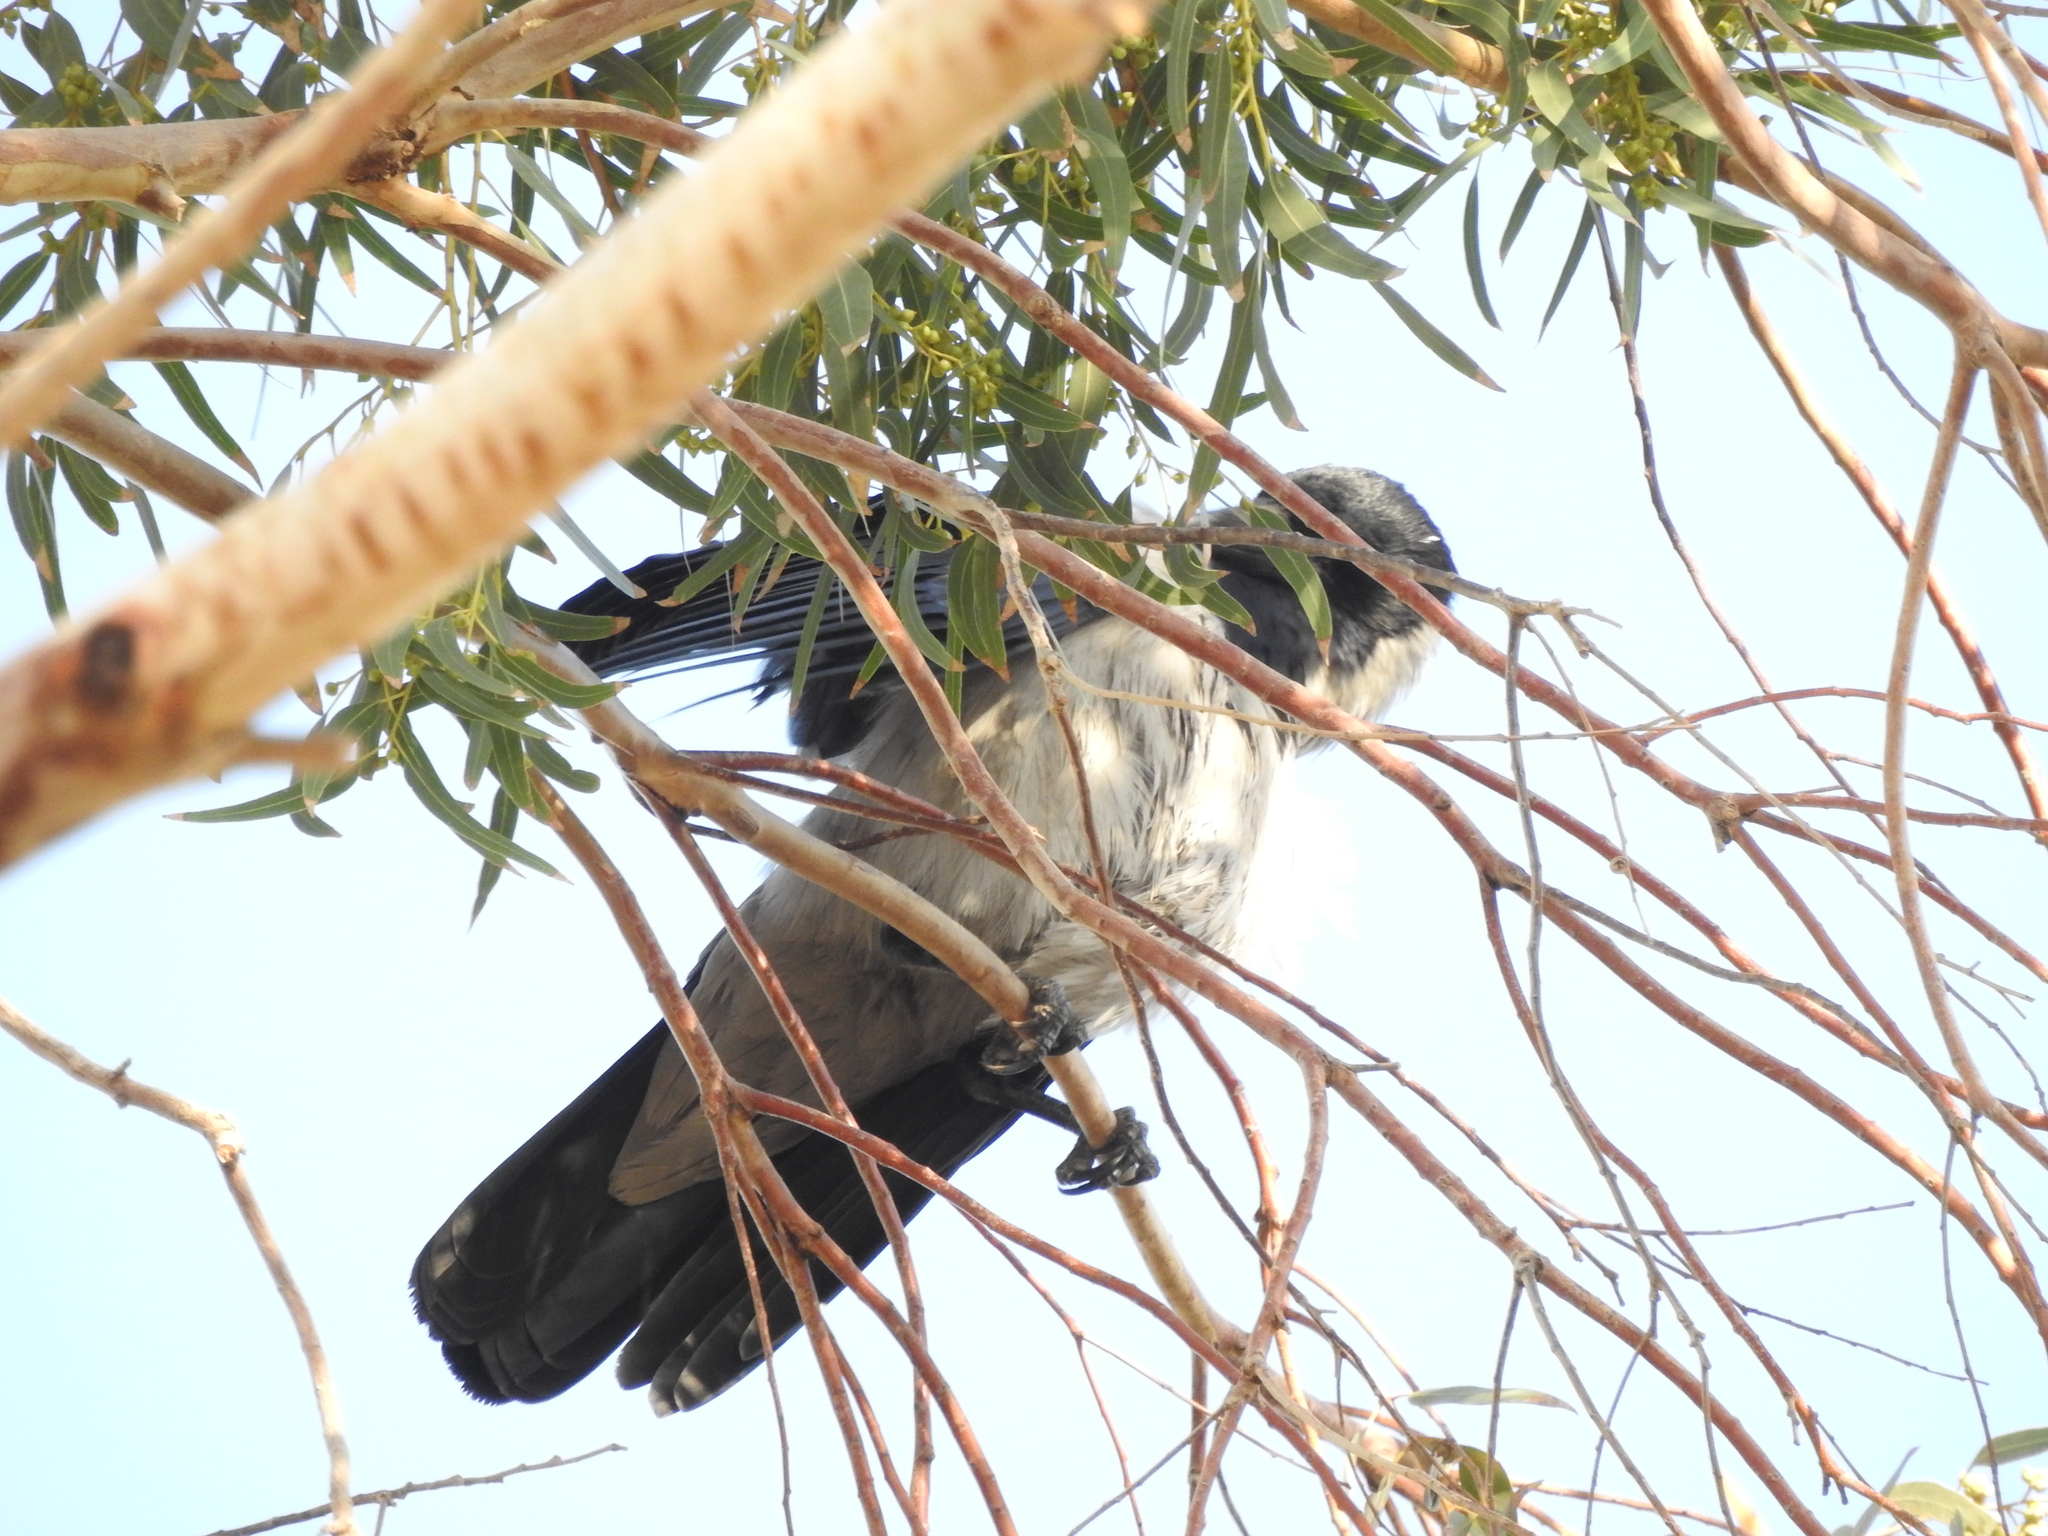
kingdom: Animalia
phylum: Chordata
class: Aves
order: Passeriformes
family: Corvidae
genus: Corvus
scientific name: Corvus cornix
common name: Hooded crow
